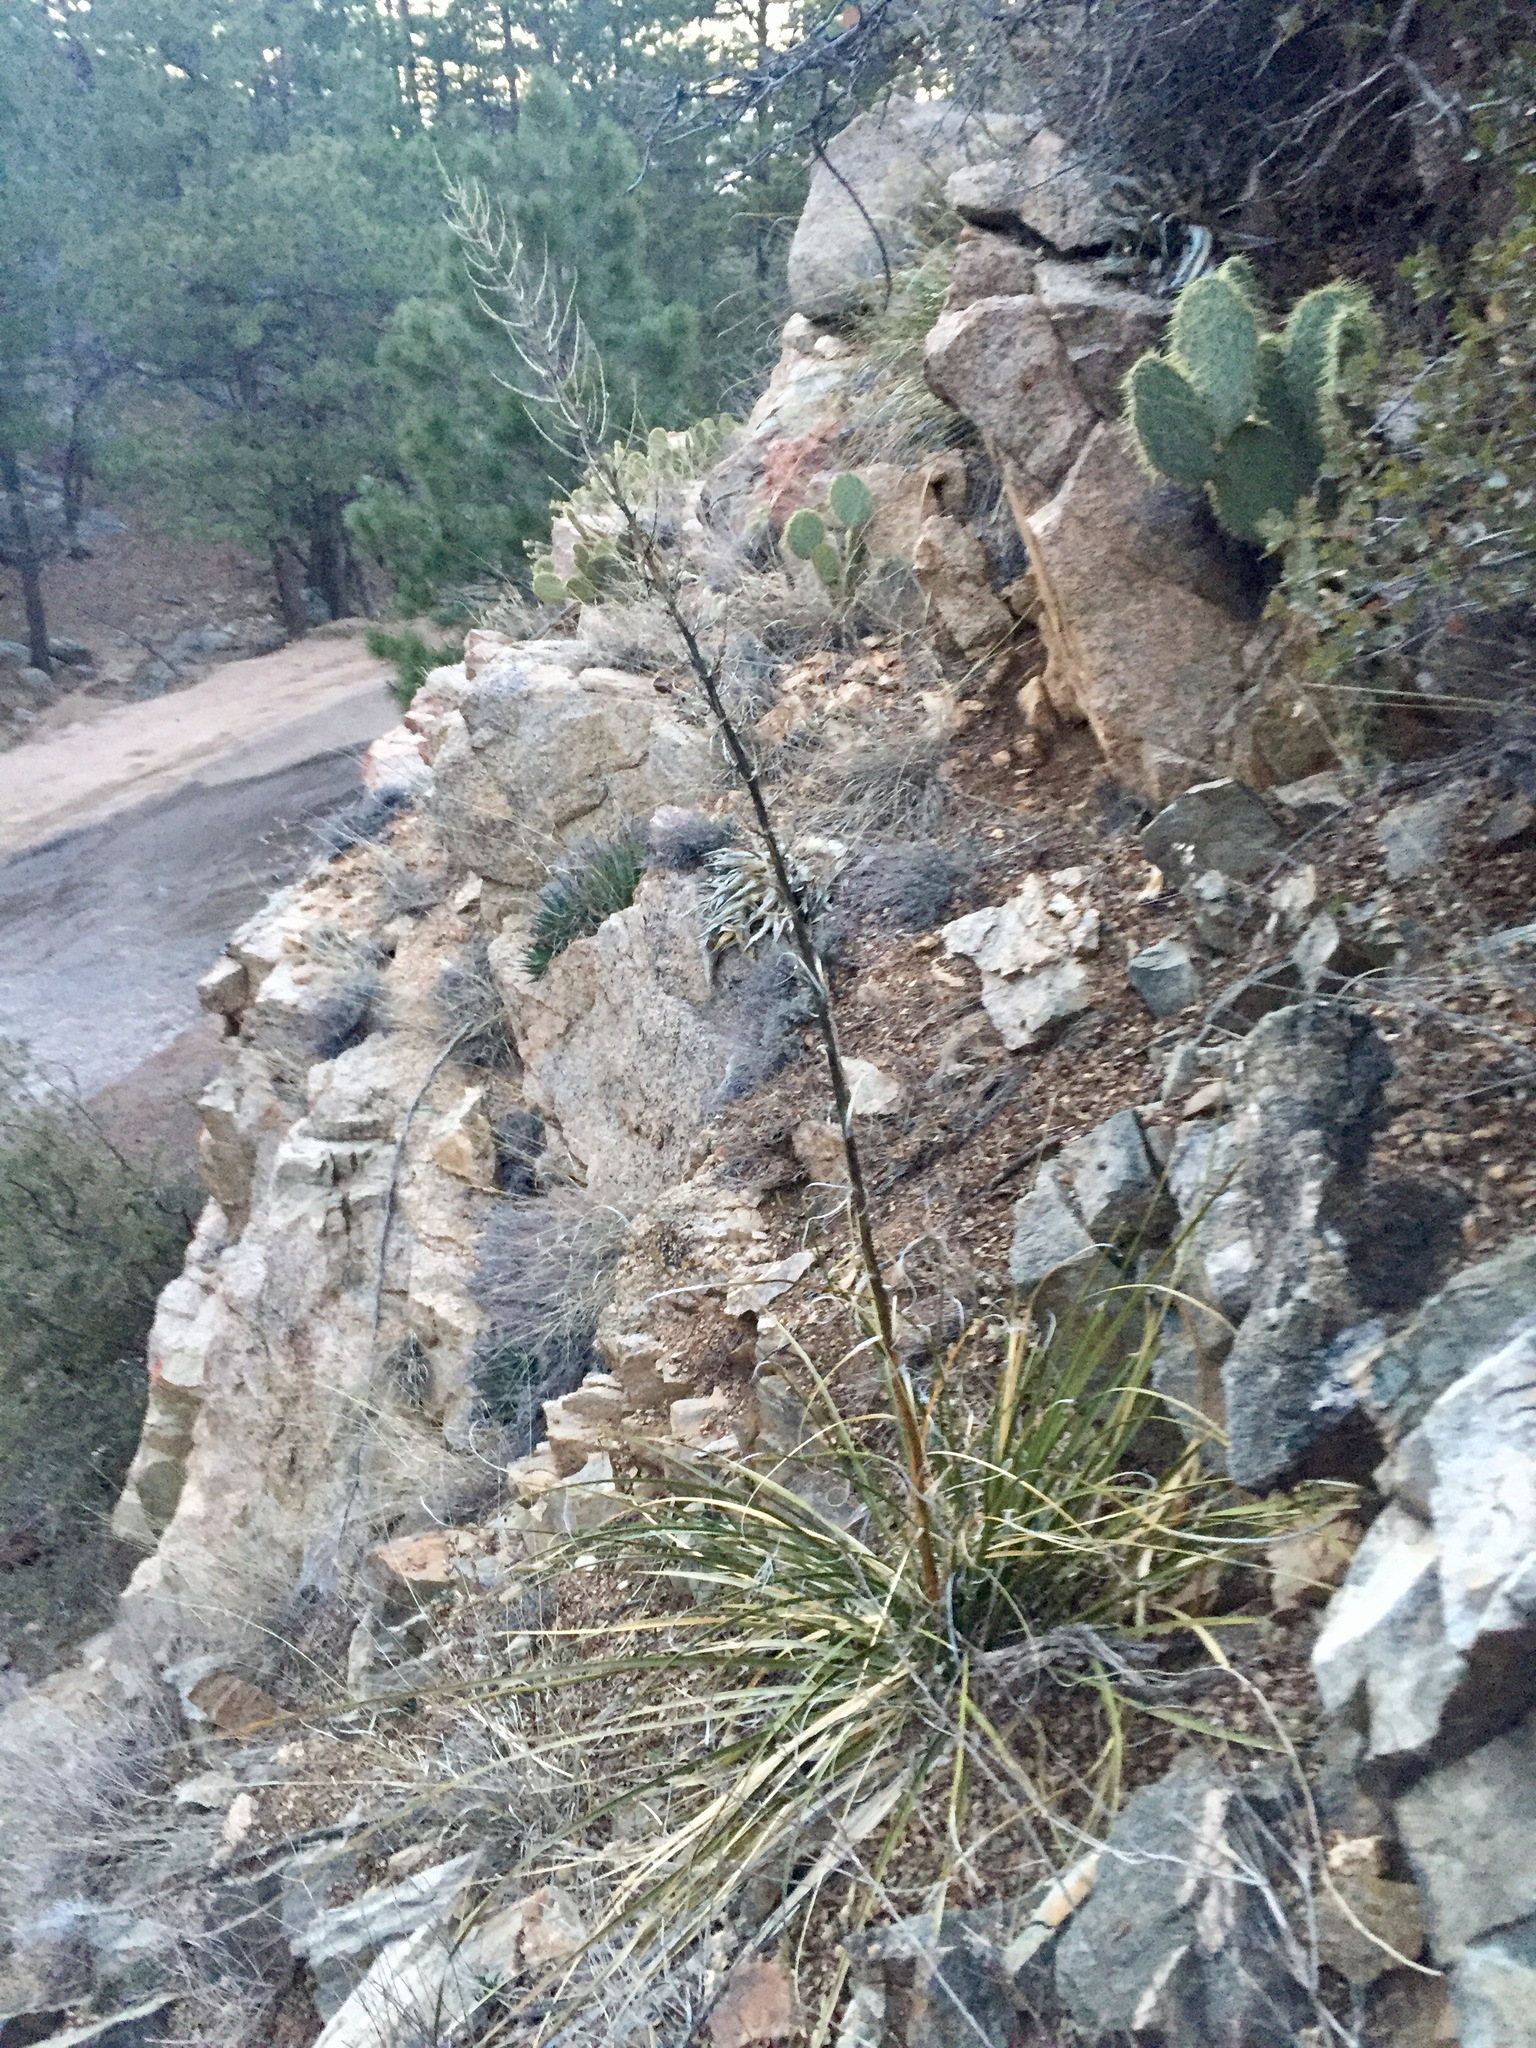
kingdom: Plantae
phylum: Tracheophyta
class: Liliopsida
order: Asparagales
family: Asparagaceae
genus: Nolina
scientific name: Nolina microcarpa
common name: Bear-grass
